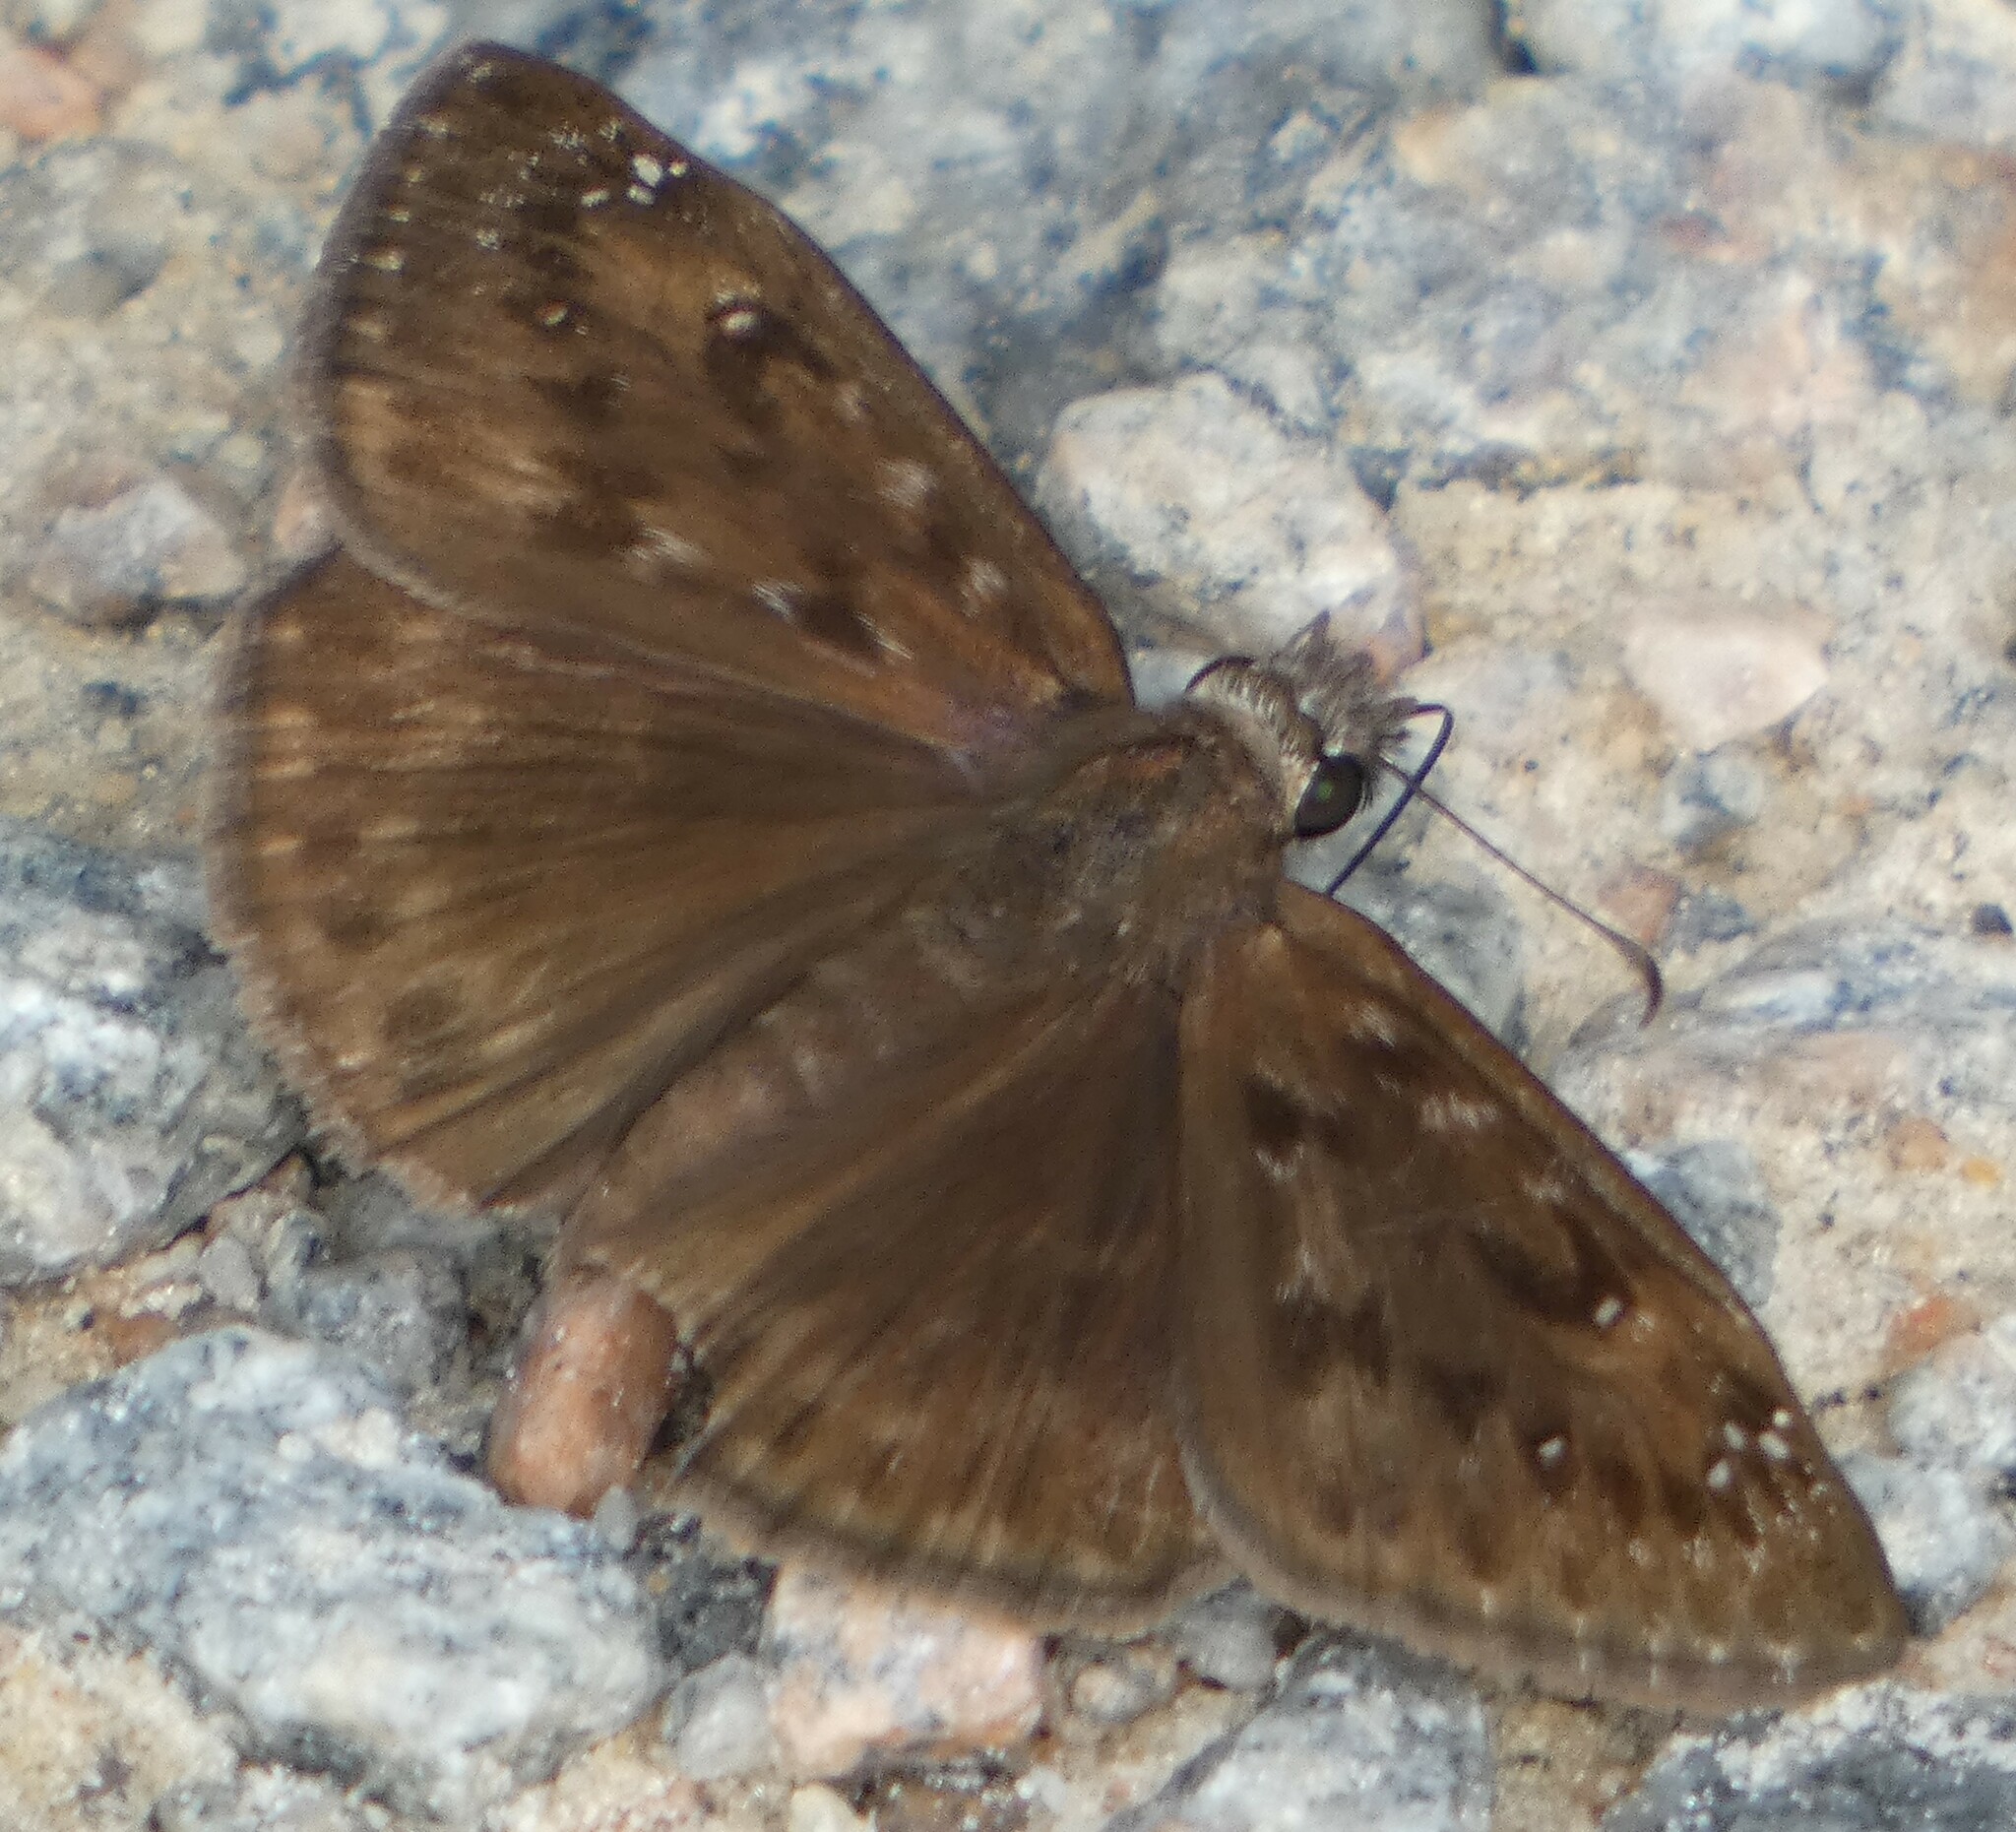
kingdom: Animalia
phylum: Arthropoda
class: Insecta
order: Lepidoptera
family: Hesperiidae
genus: Erynnis
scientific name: Erynnis horatius
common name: Horace's duskywing
